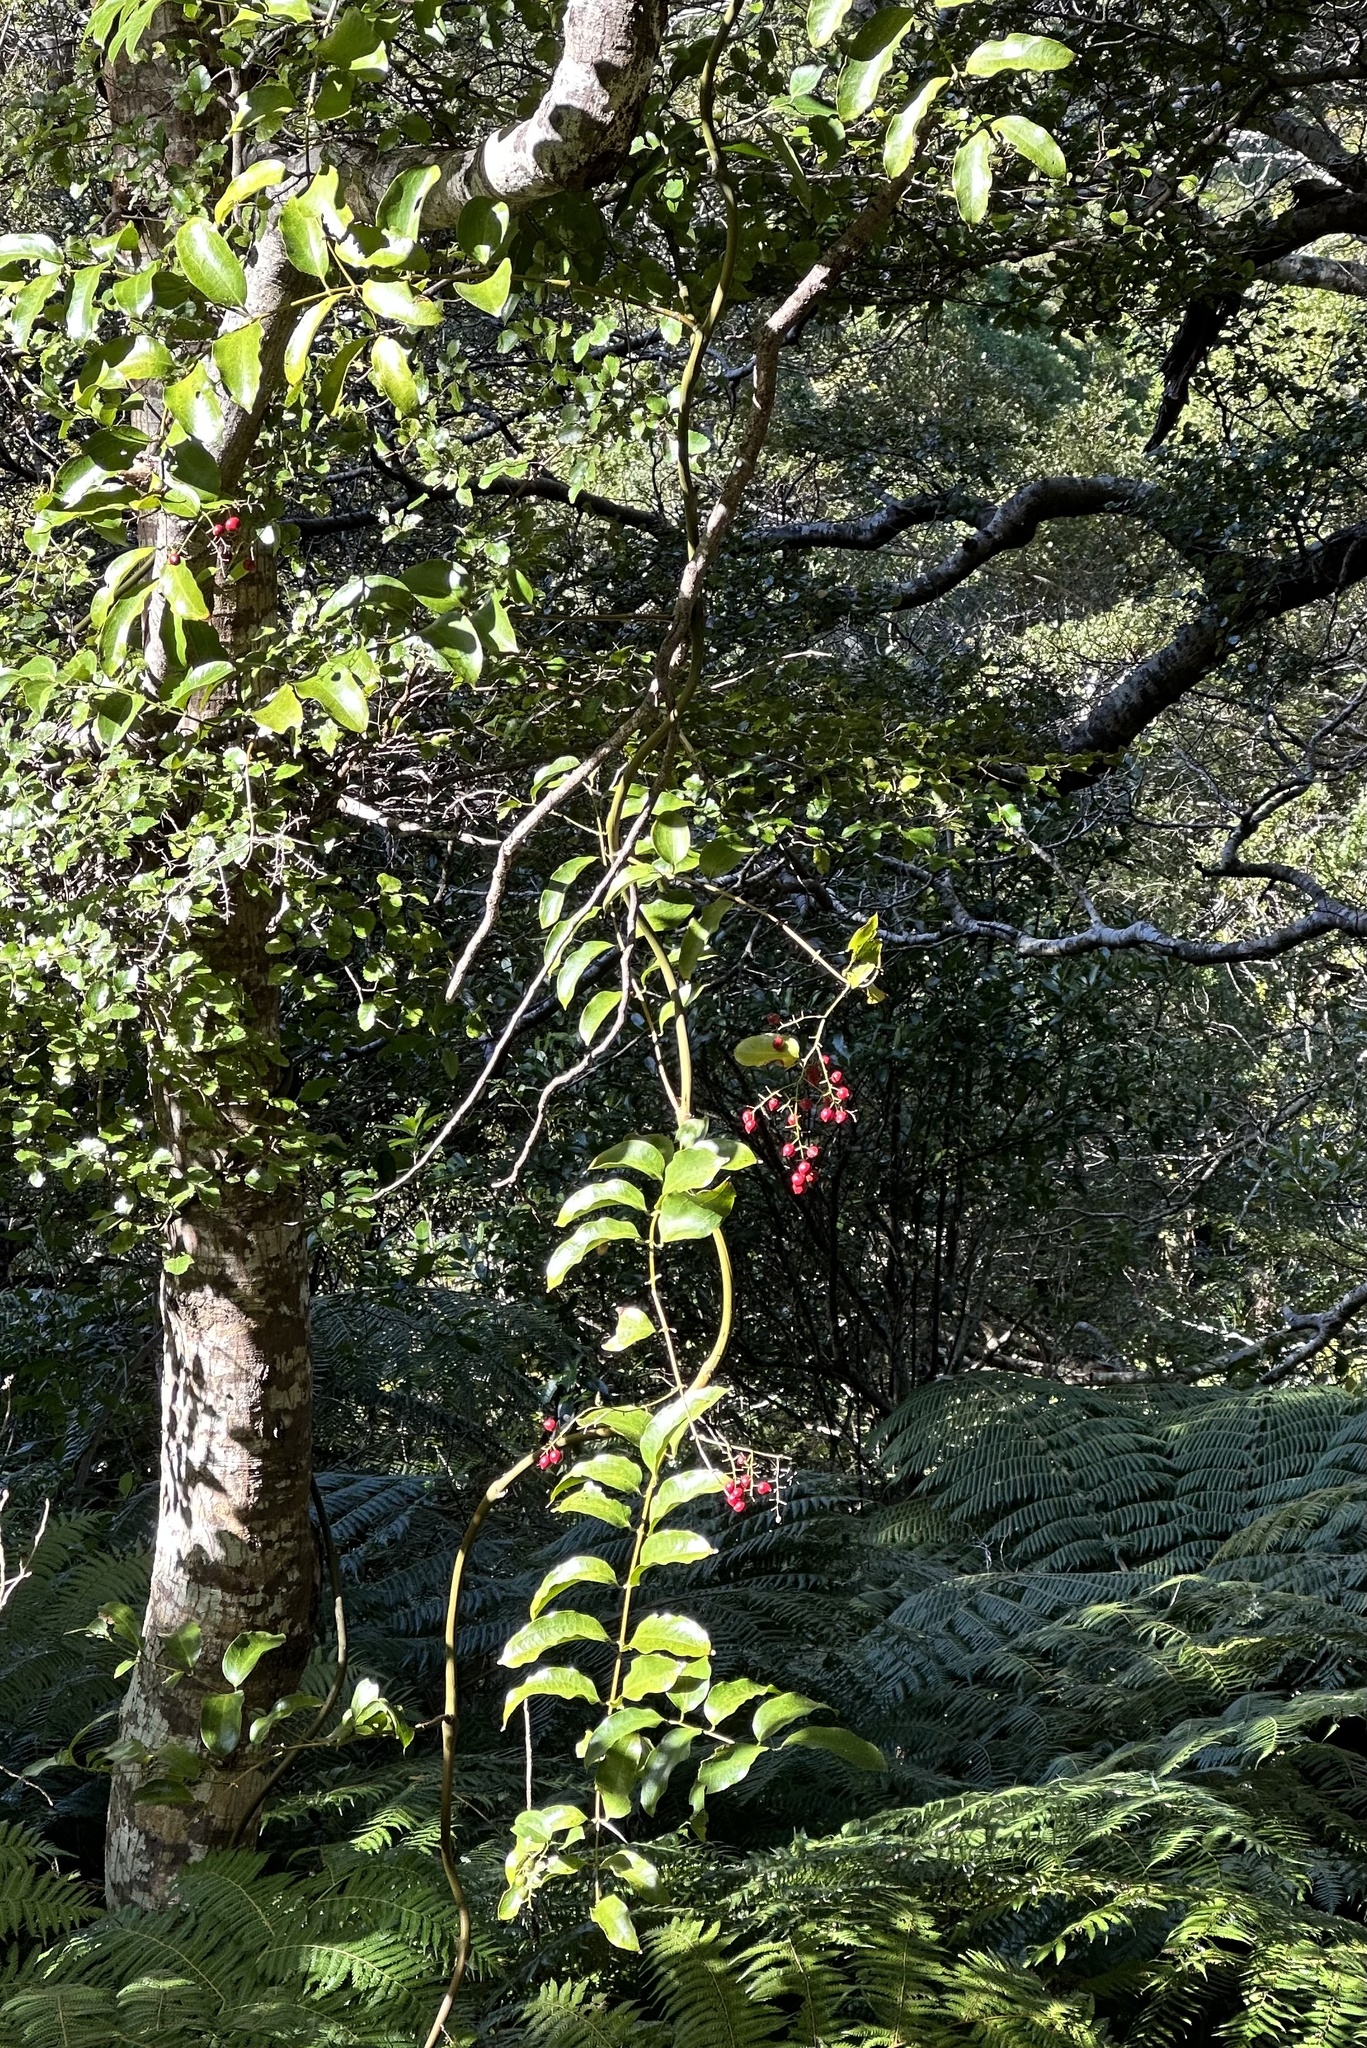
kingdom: Plantae
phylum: Tracheophyta
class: Liliopsida
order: Liliales
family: Ripogonaceae
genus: Ripogonum
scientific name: Ripogonum scandens
